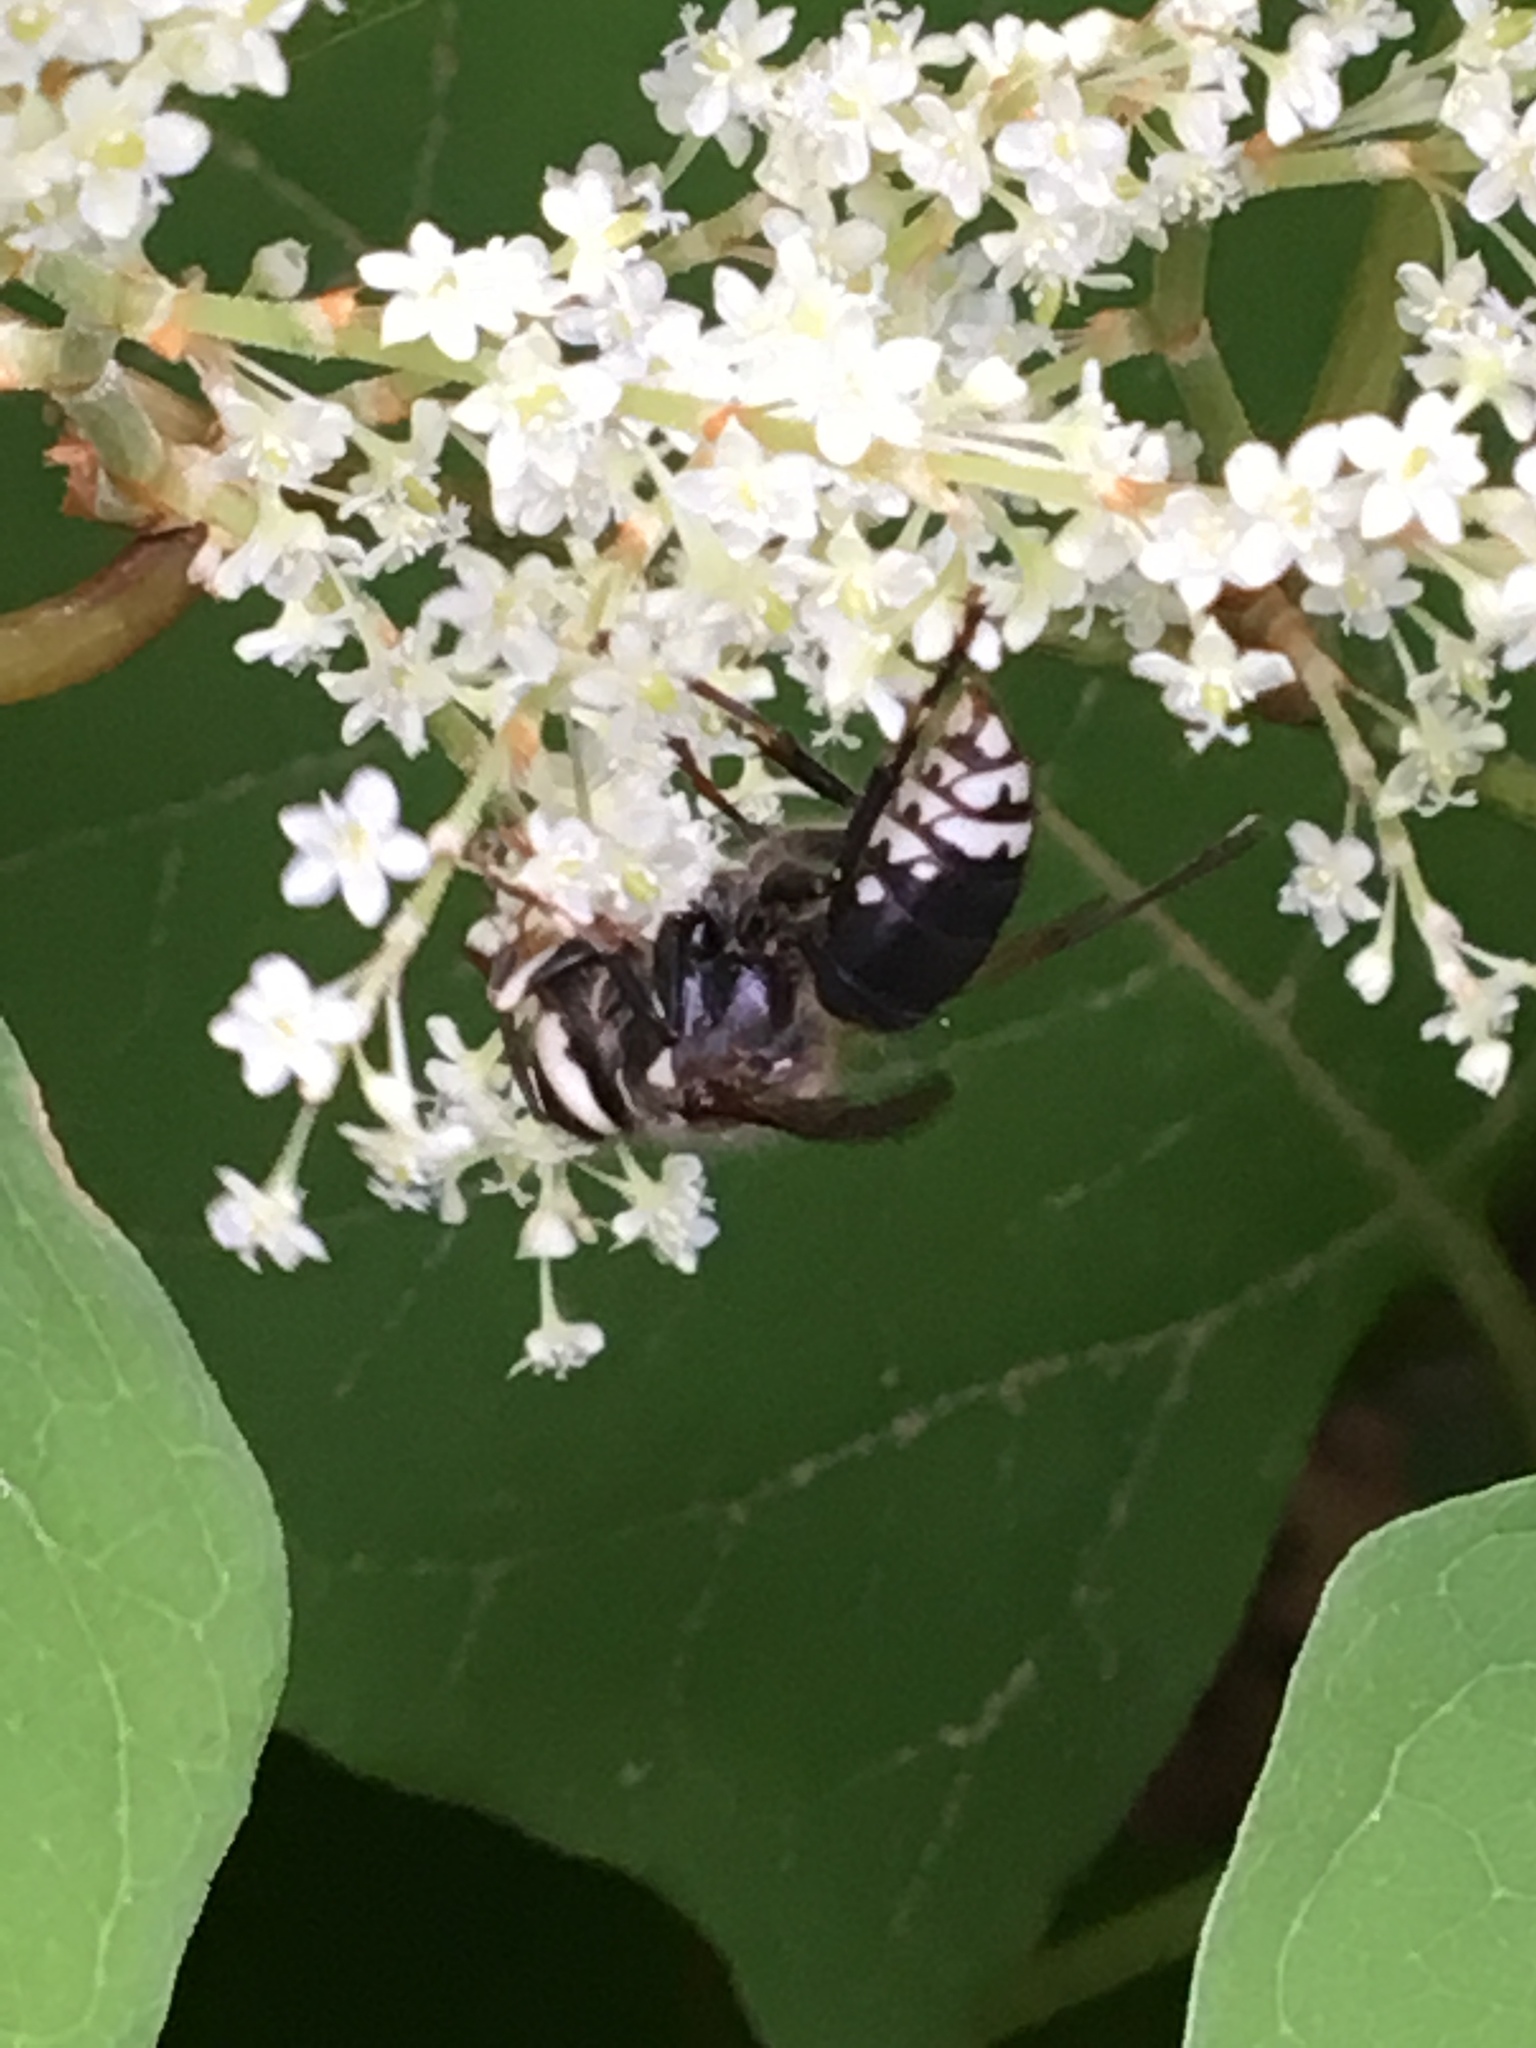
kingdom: Animalia
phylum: Arthropoda
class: Insecta
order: Hymenoptera
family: Vespidae
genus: Dolichovespula
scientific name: Dolichovespula maculata
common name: Bald-faced hornet
